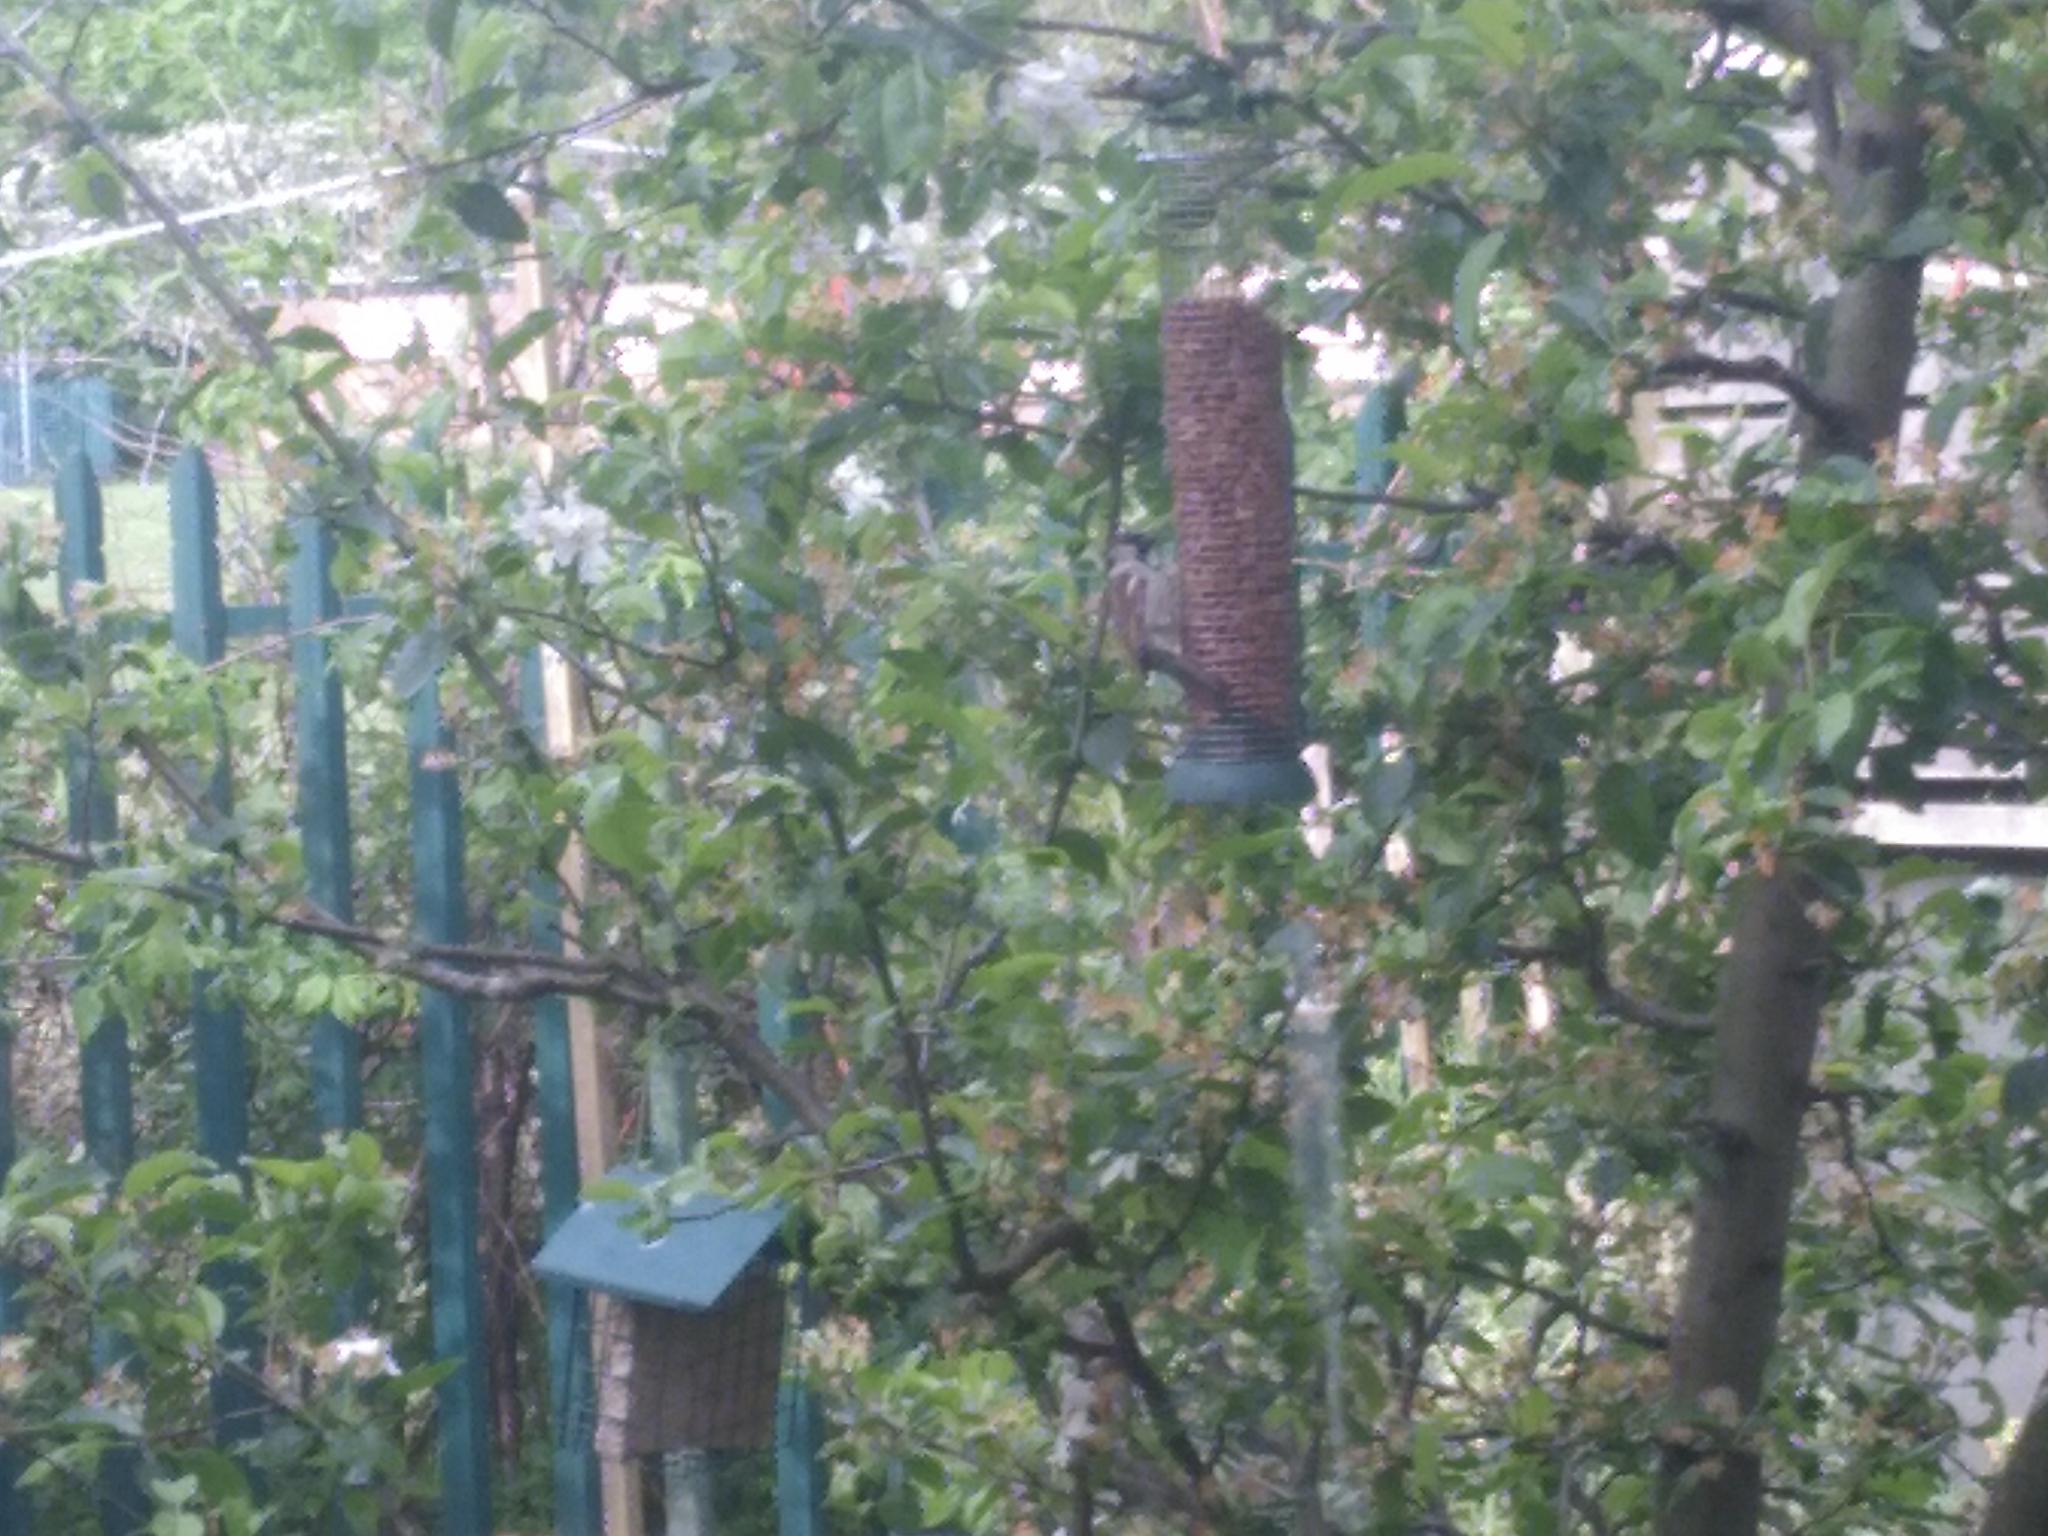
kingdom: Animalia
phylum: Chordata
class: Aves
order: Passeriformes
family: Passeridae
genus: Passer
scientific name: Passer domesticus
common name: House sparrow
